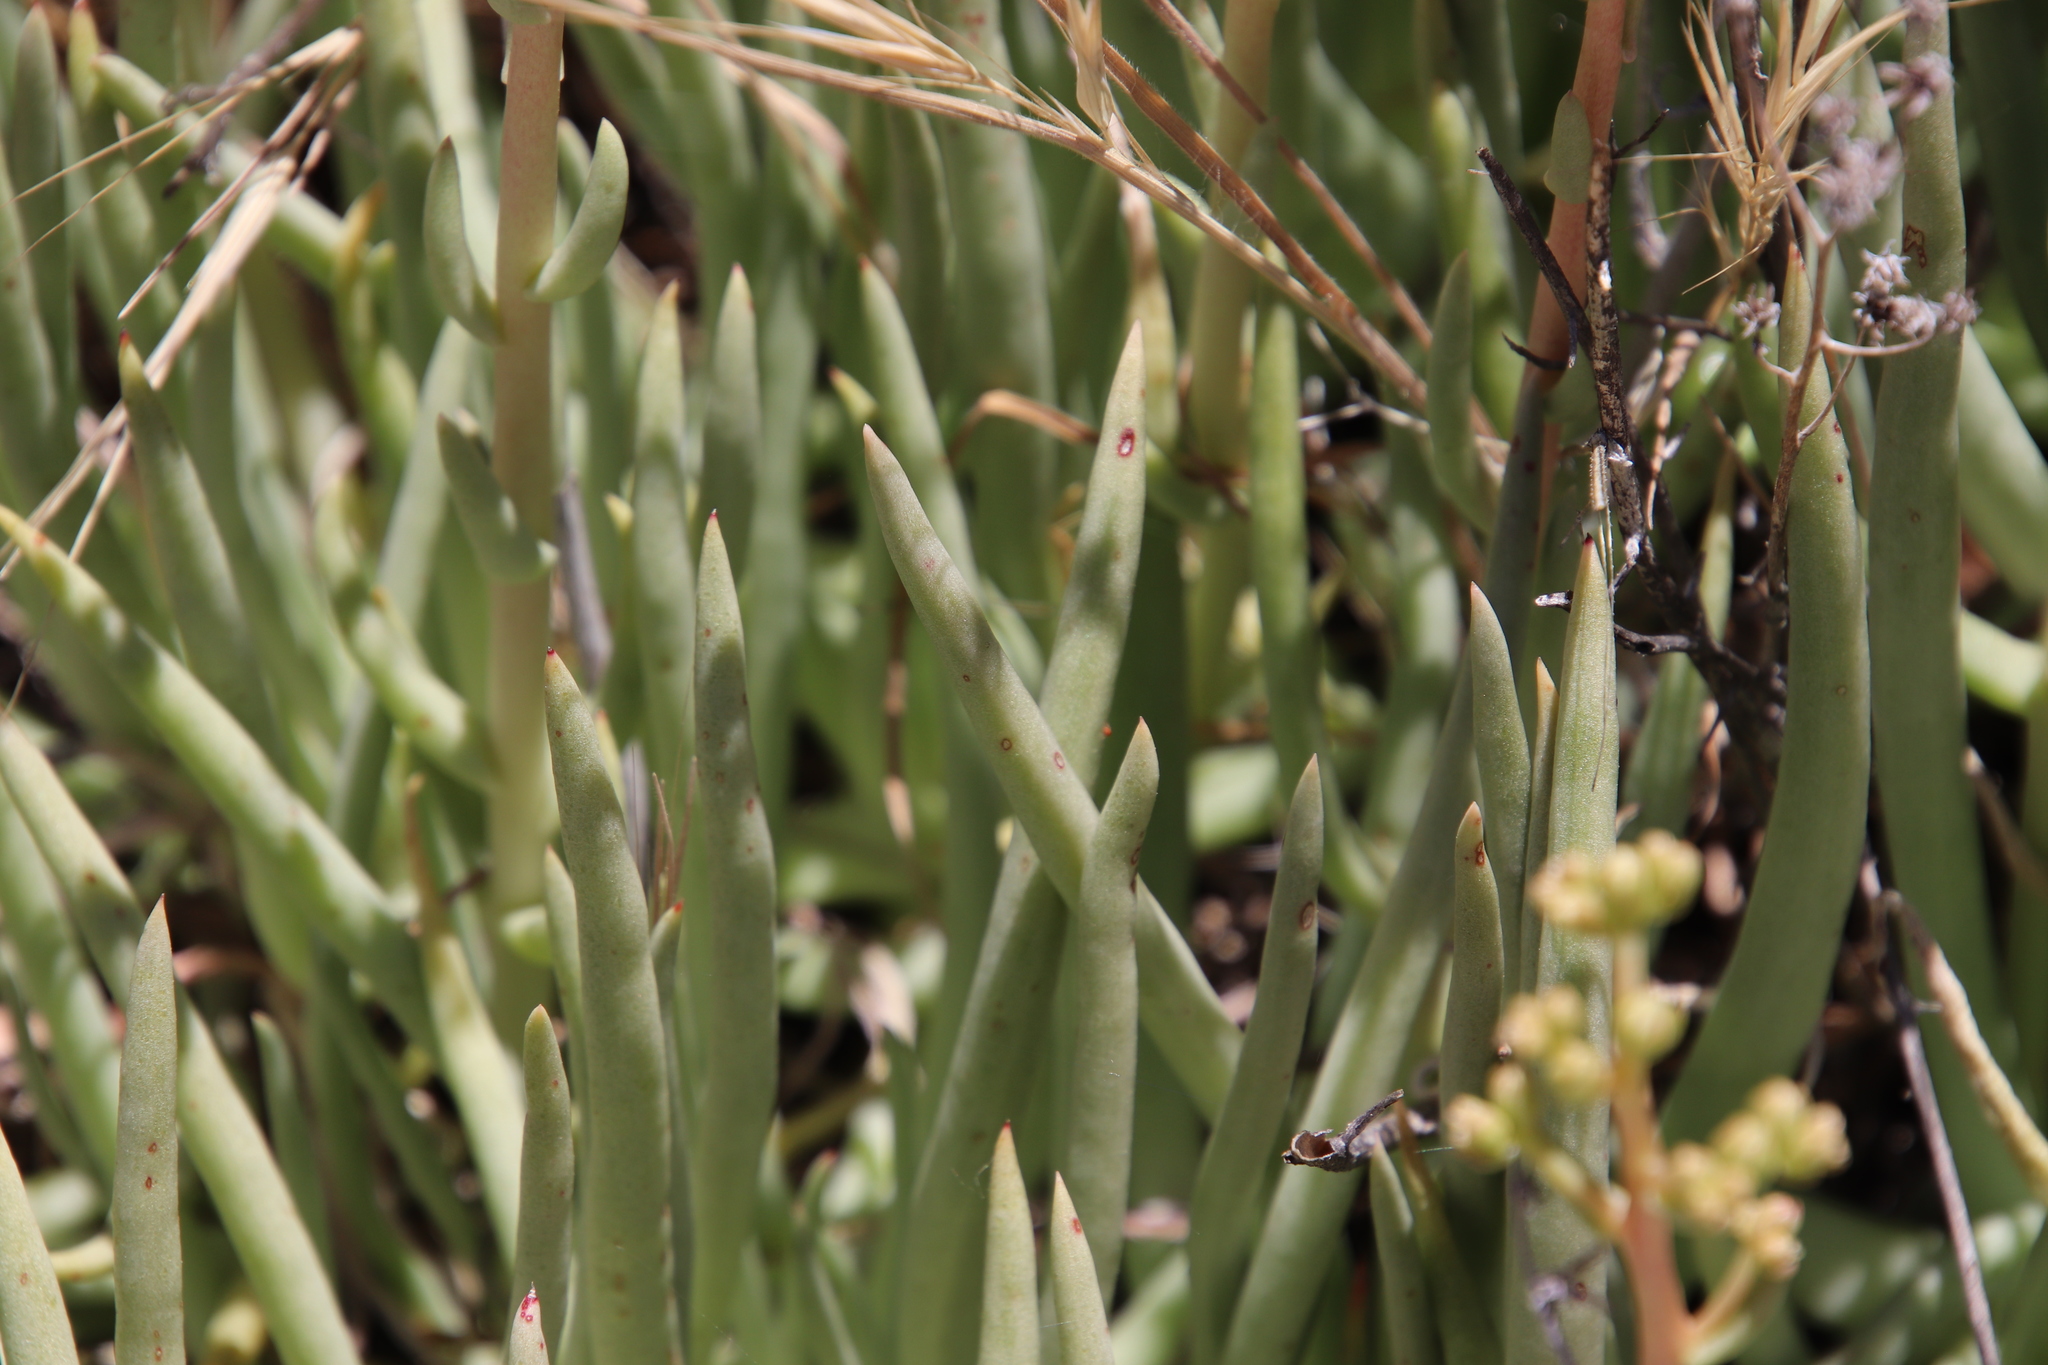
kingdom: Plantae
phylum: Tracheophyta
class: Magnoliopsida
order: Saxifragales
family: Crassulaceae
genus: Dudleya
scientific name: Dudleya edulis
